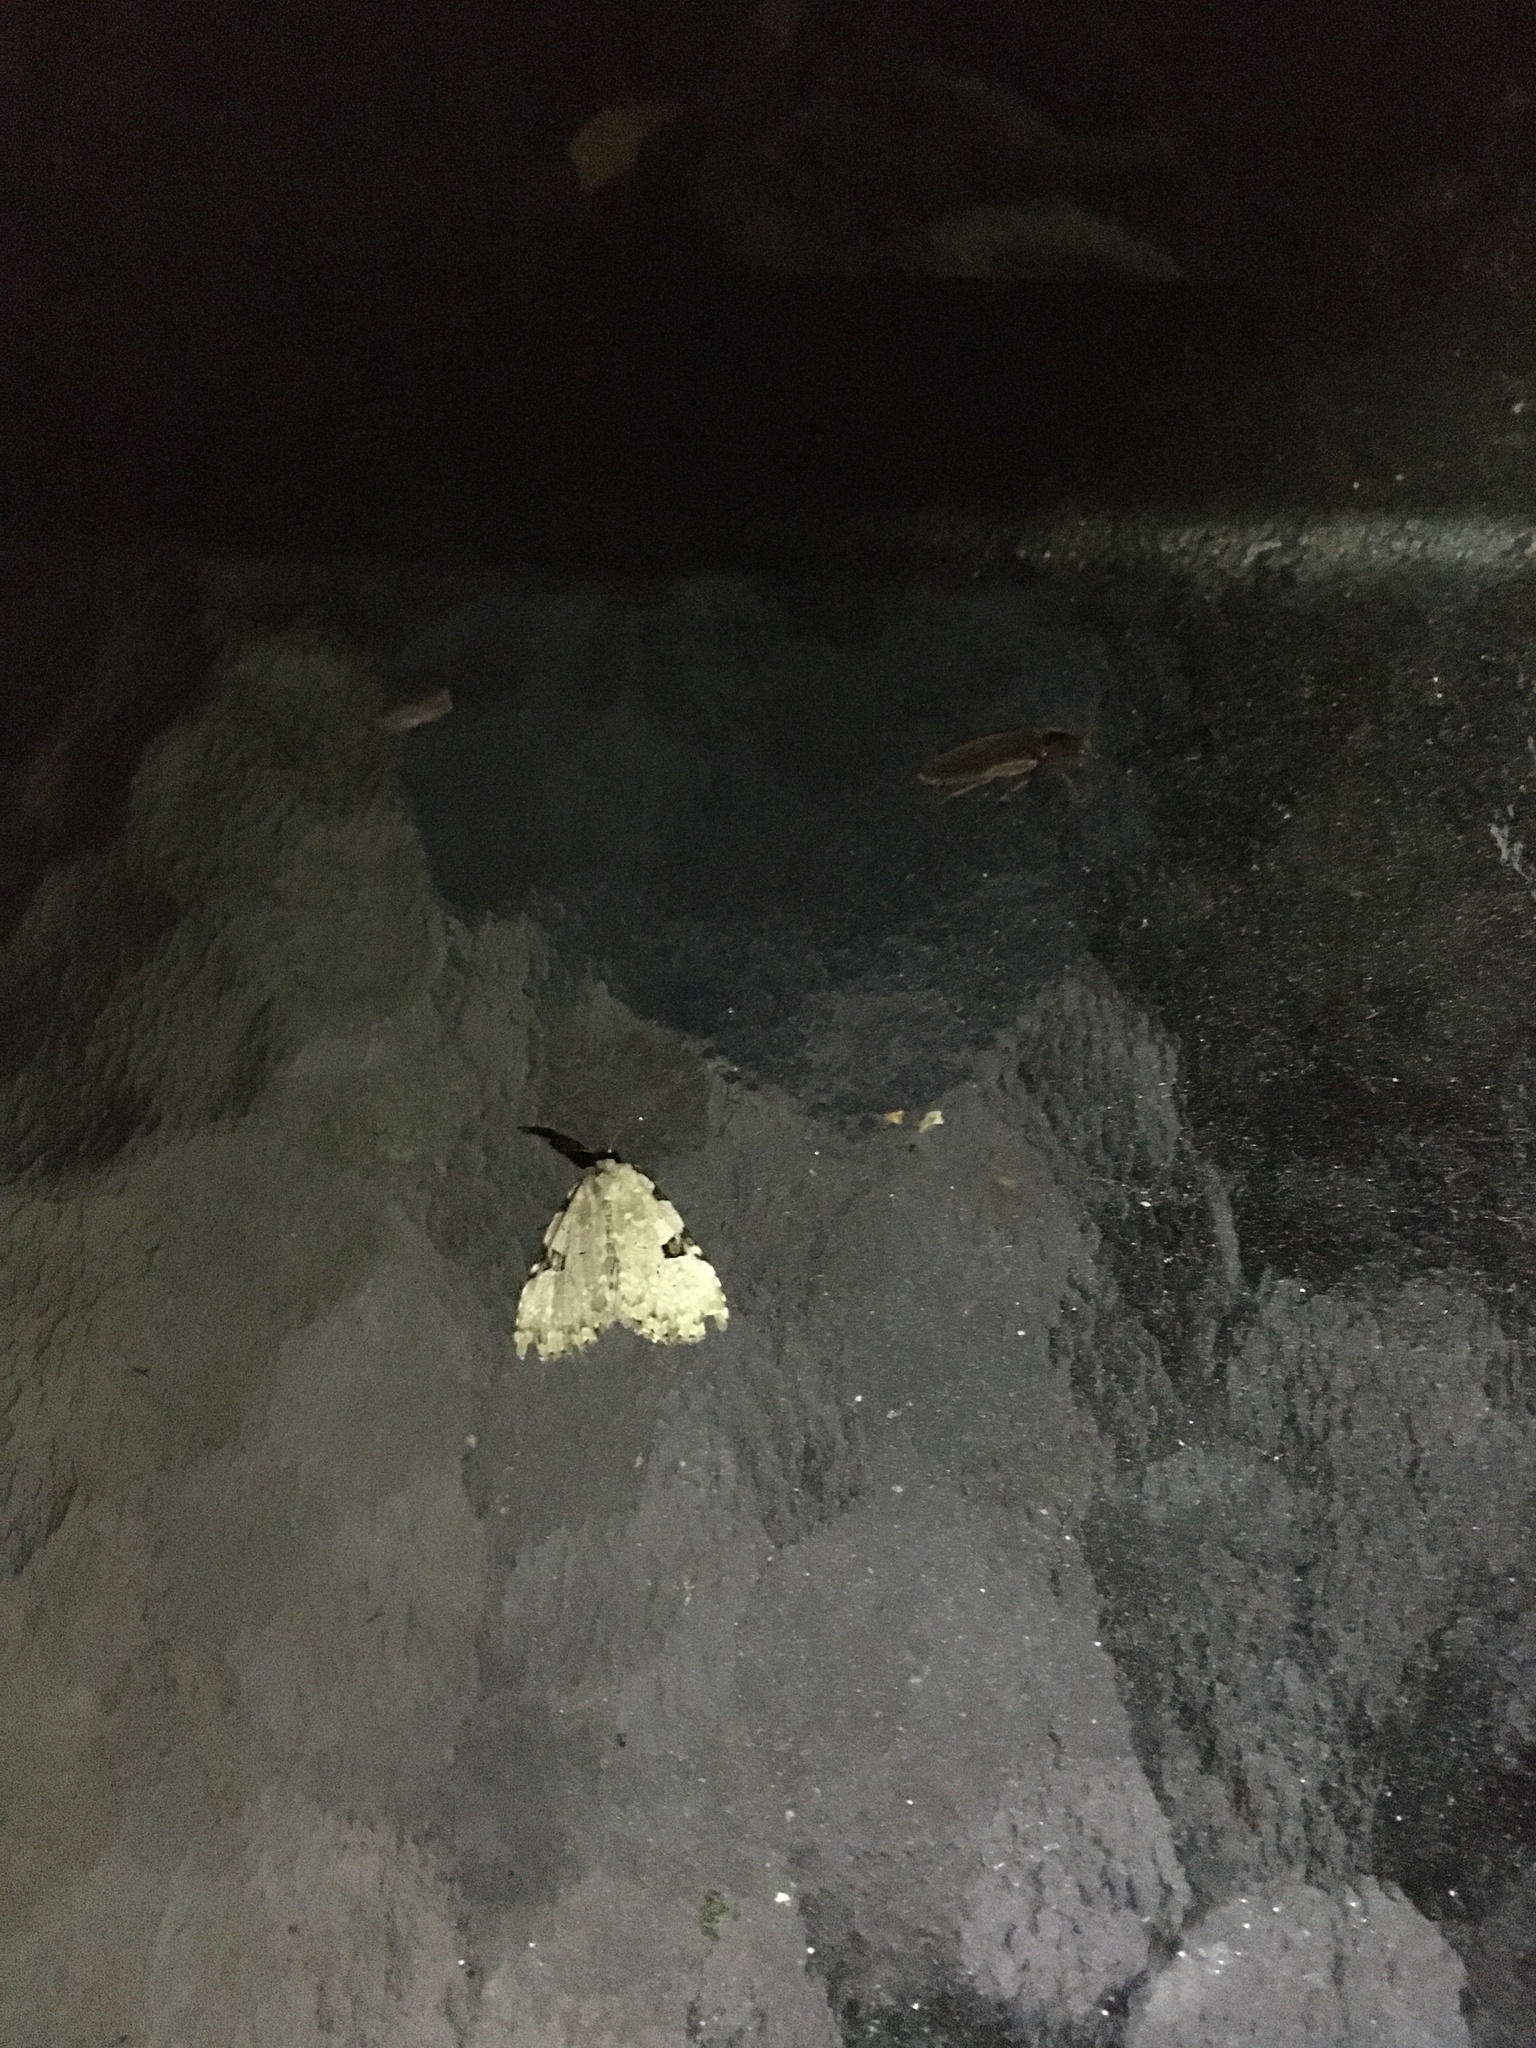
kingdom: Animalia
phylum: Arthropoda
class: Insecta
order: Lepidoptera
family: Noctuidae
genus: Leuconycta
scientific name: Leuconycta diphteroides
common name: Green leuconycta moth
